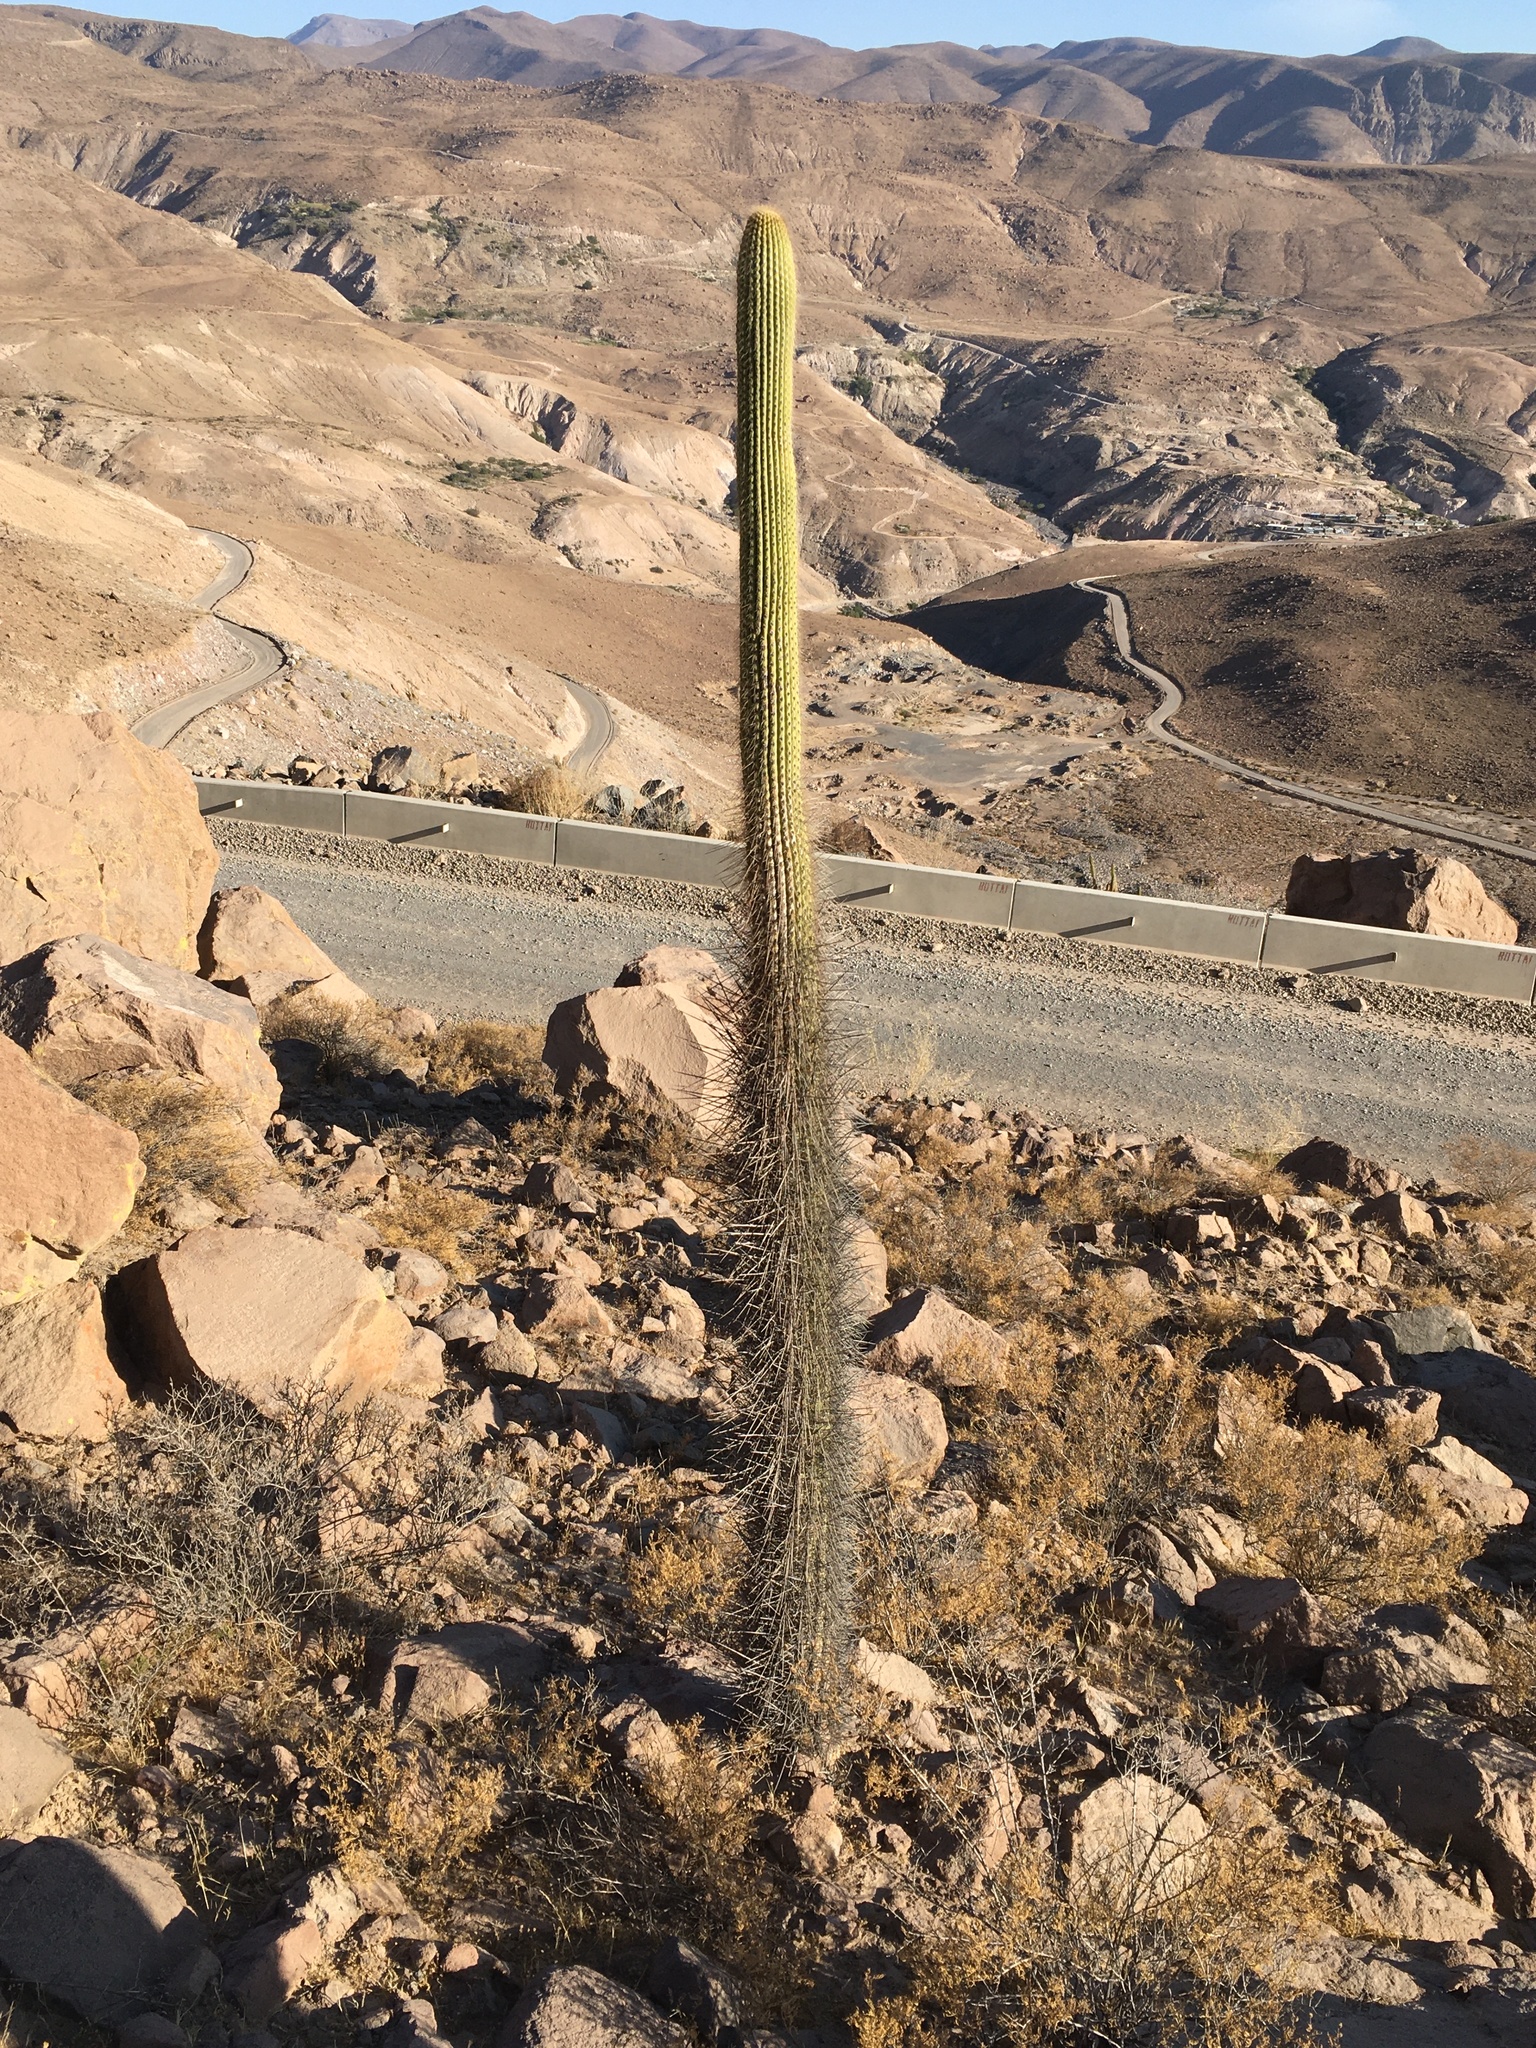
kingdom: Plantae
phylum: Tracheophyta
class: Magnoliopsida
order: Caryophyllales
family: Cactaceae
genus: Browningia
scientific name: Browningia candelaris
